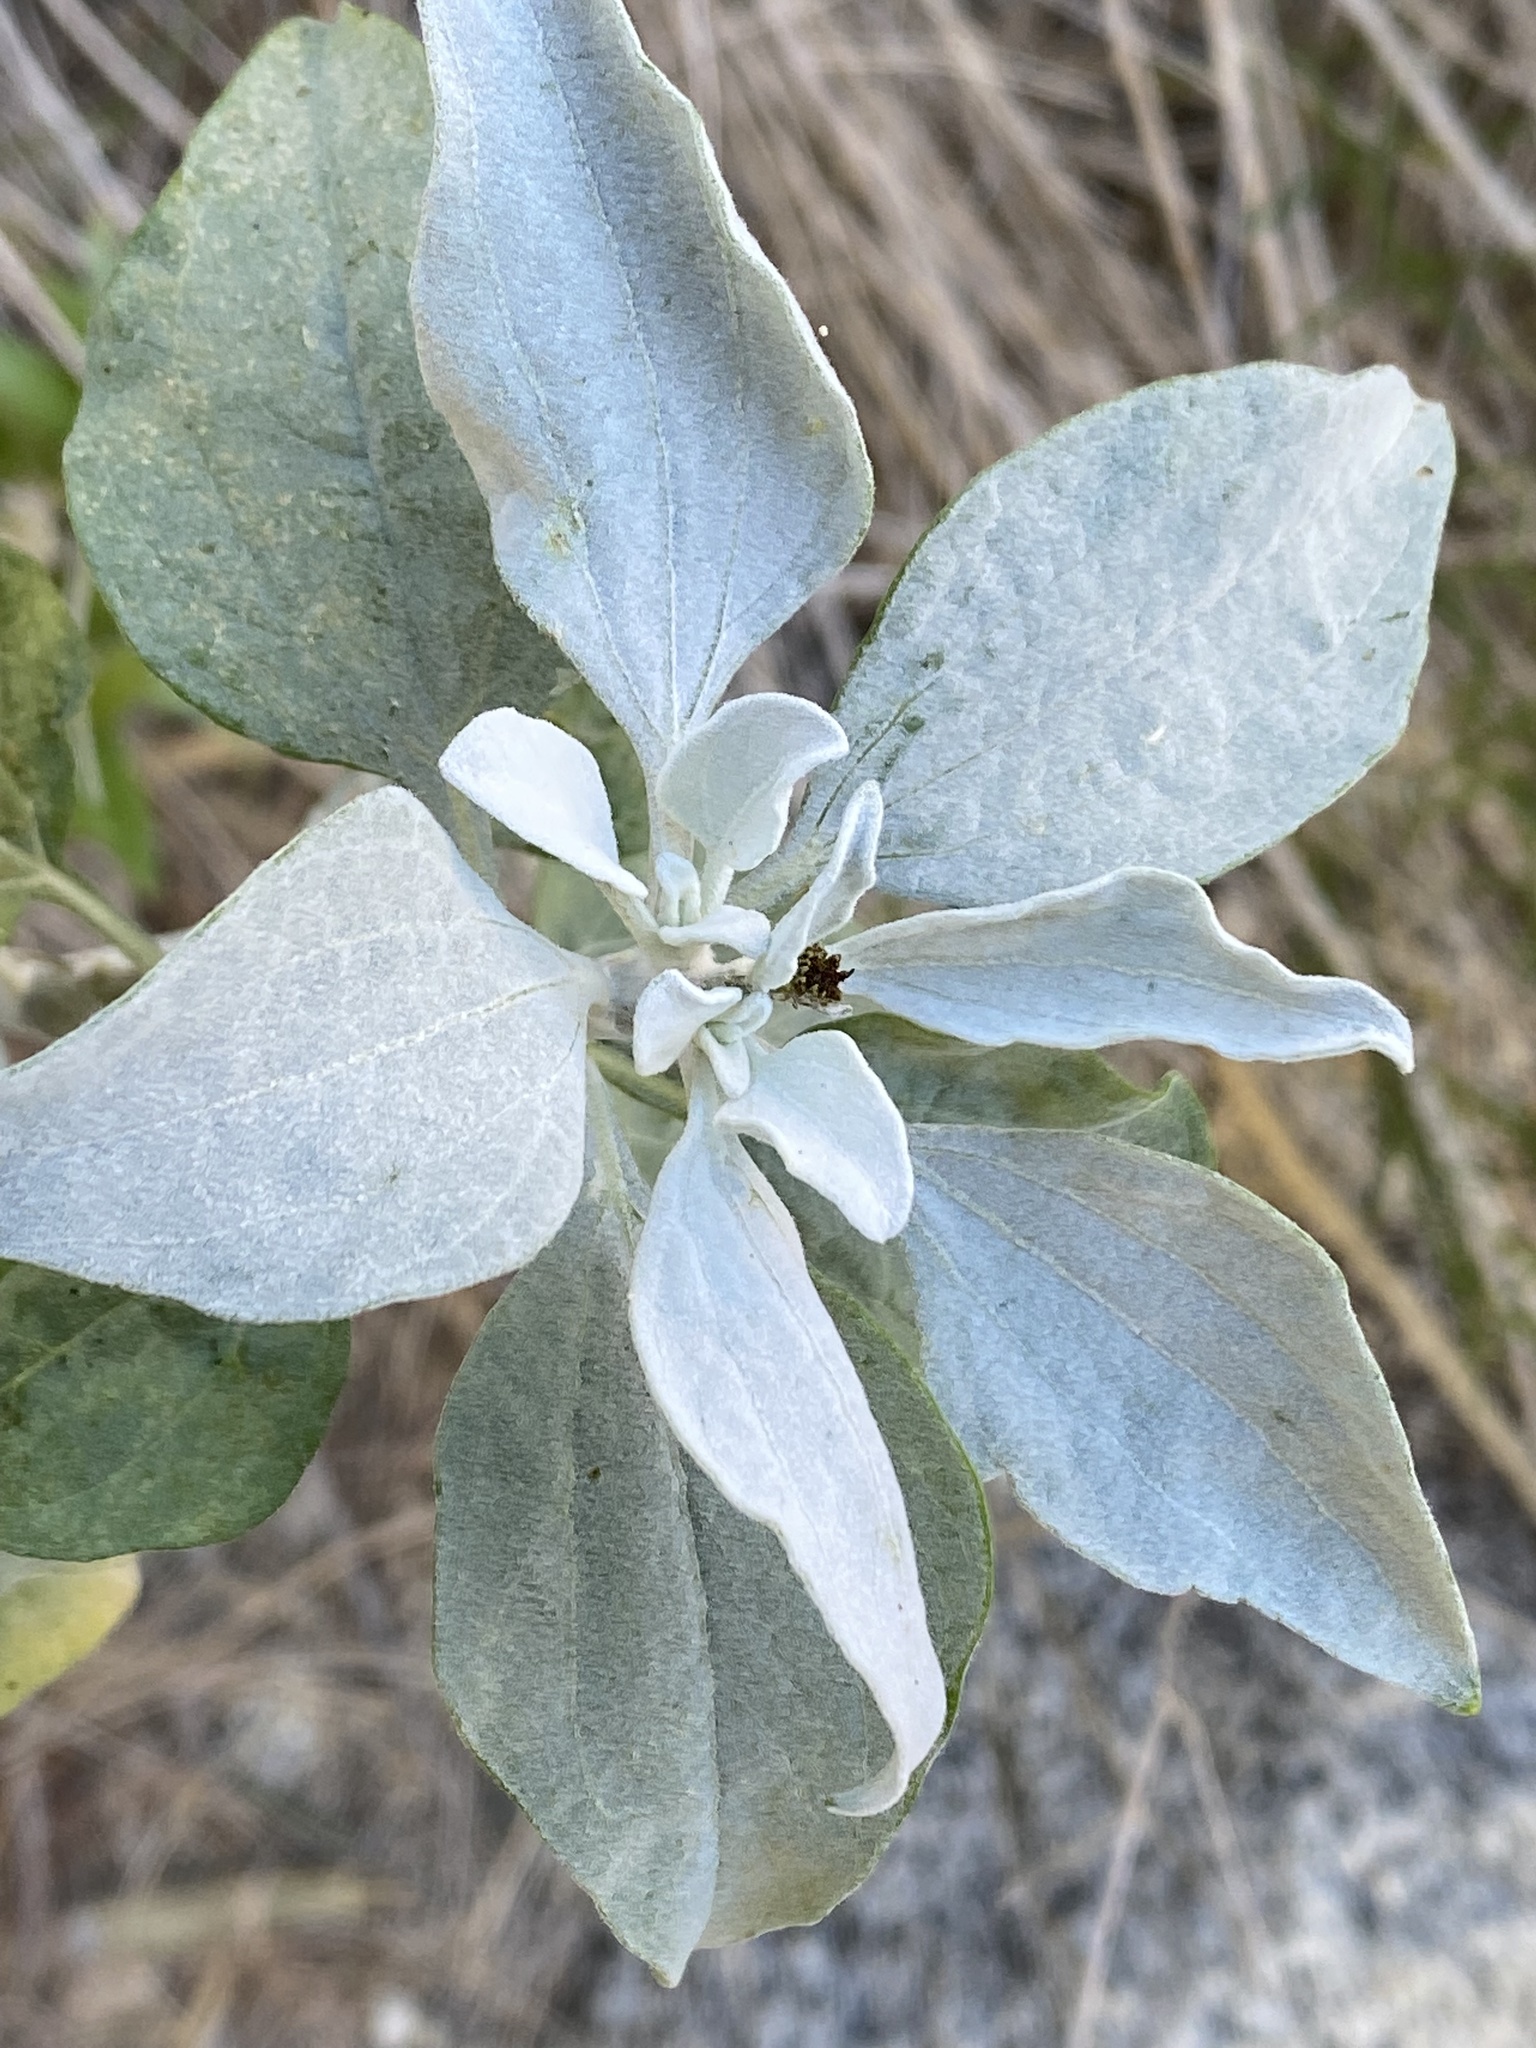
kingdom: Plantae
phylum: Tracheophyta
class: Magnoliopsida
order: Asterales
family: Asteraceae
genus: Encelia
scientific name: Encelia farinosa
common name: Brittlebush
